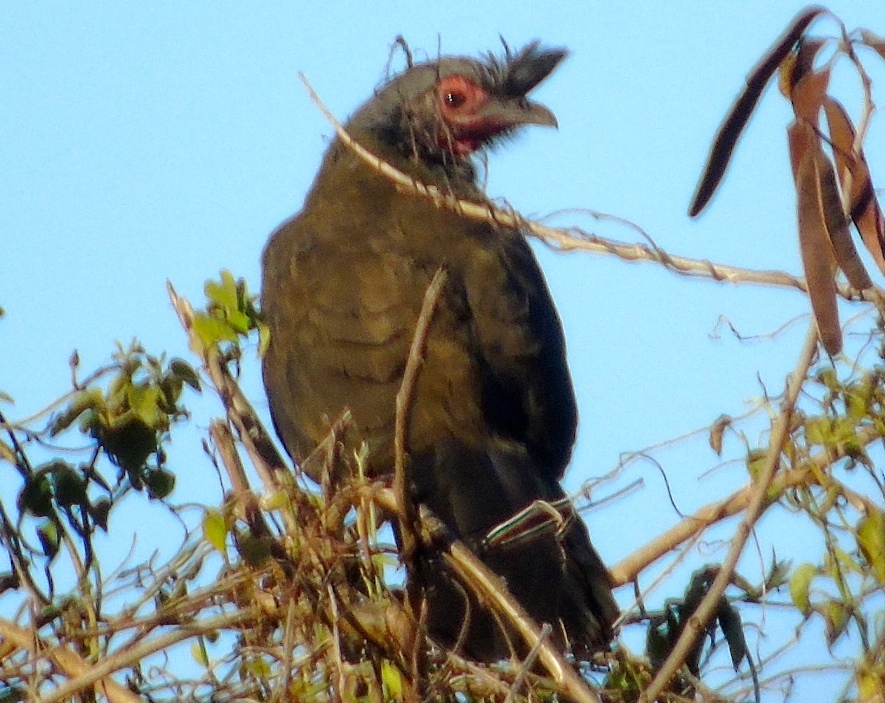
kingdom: Animalia
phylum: Chordata
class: Aves
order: Galliformes
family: Cracidae
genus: Ortalis
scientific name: Ortalis wagleri
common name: Rufous-bellied chachalaca
